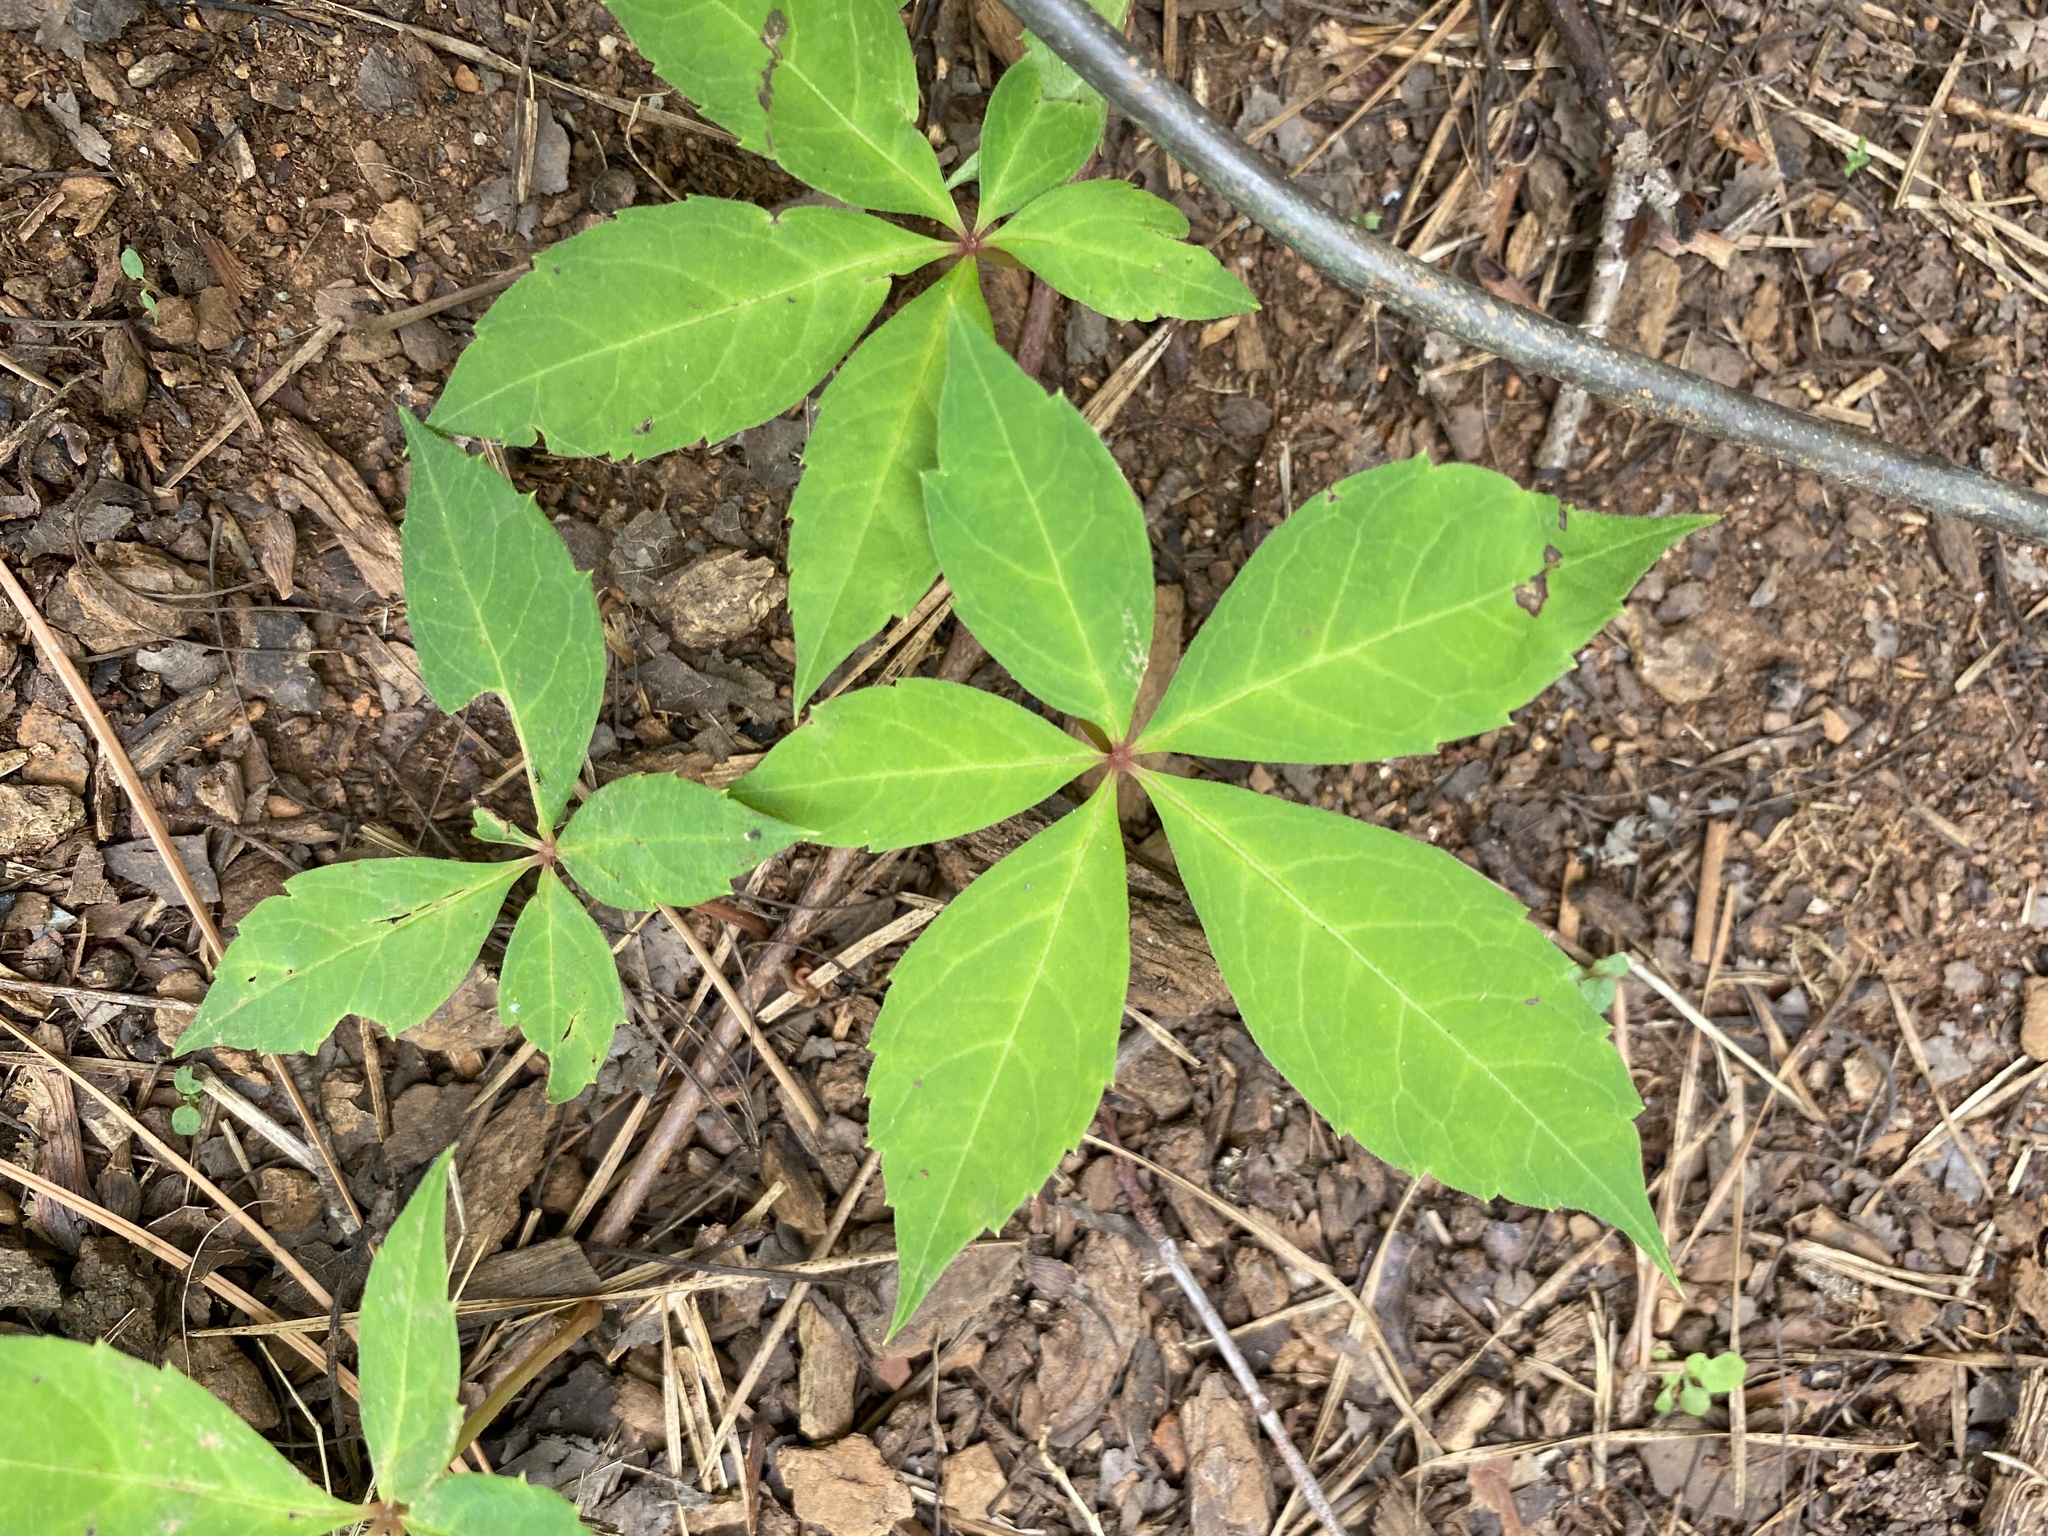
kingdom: Plantae
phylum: Tracheophyta
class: Magnoliopsida
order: Vitales
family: Vitaceae
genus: Parthenocissus
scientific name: Parthenocissus quinquefolia
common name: Virginia-creeper
